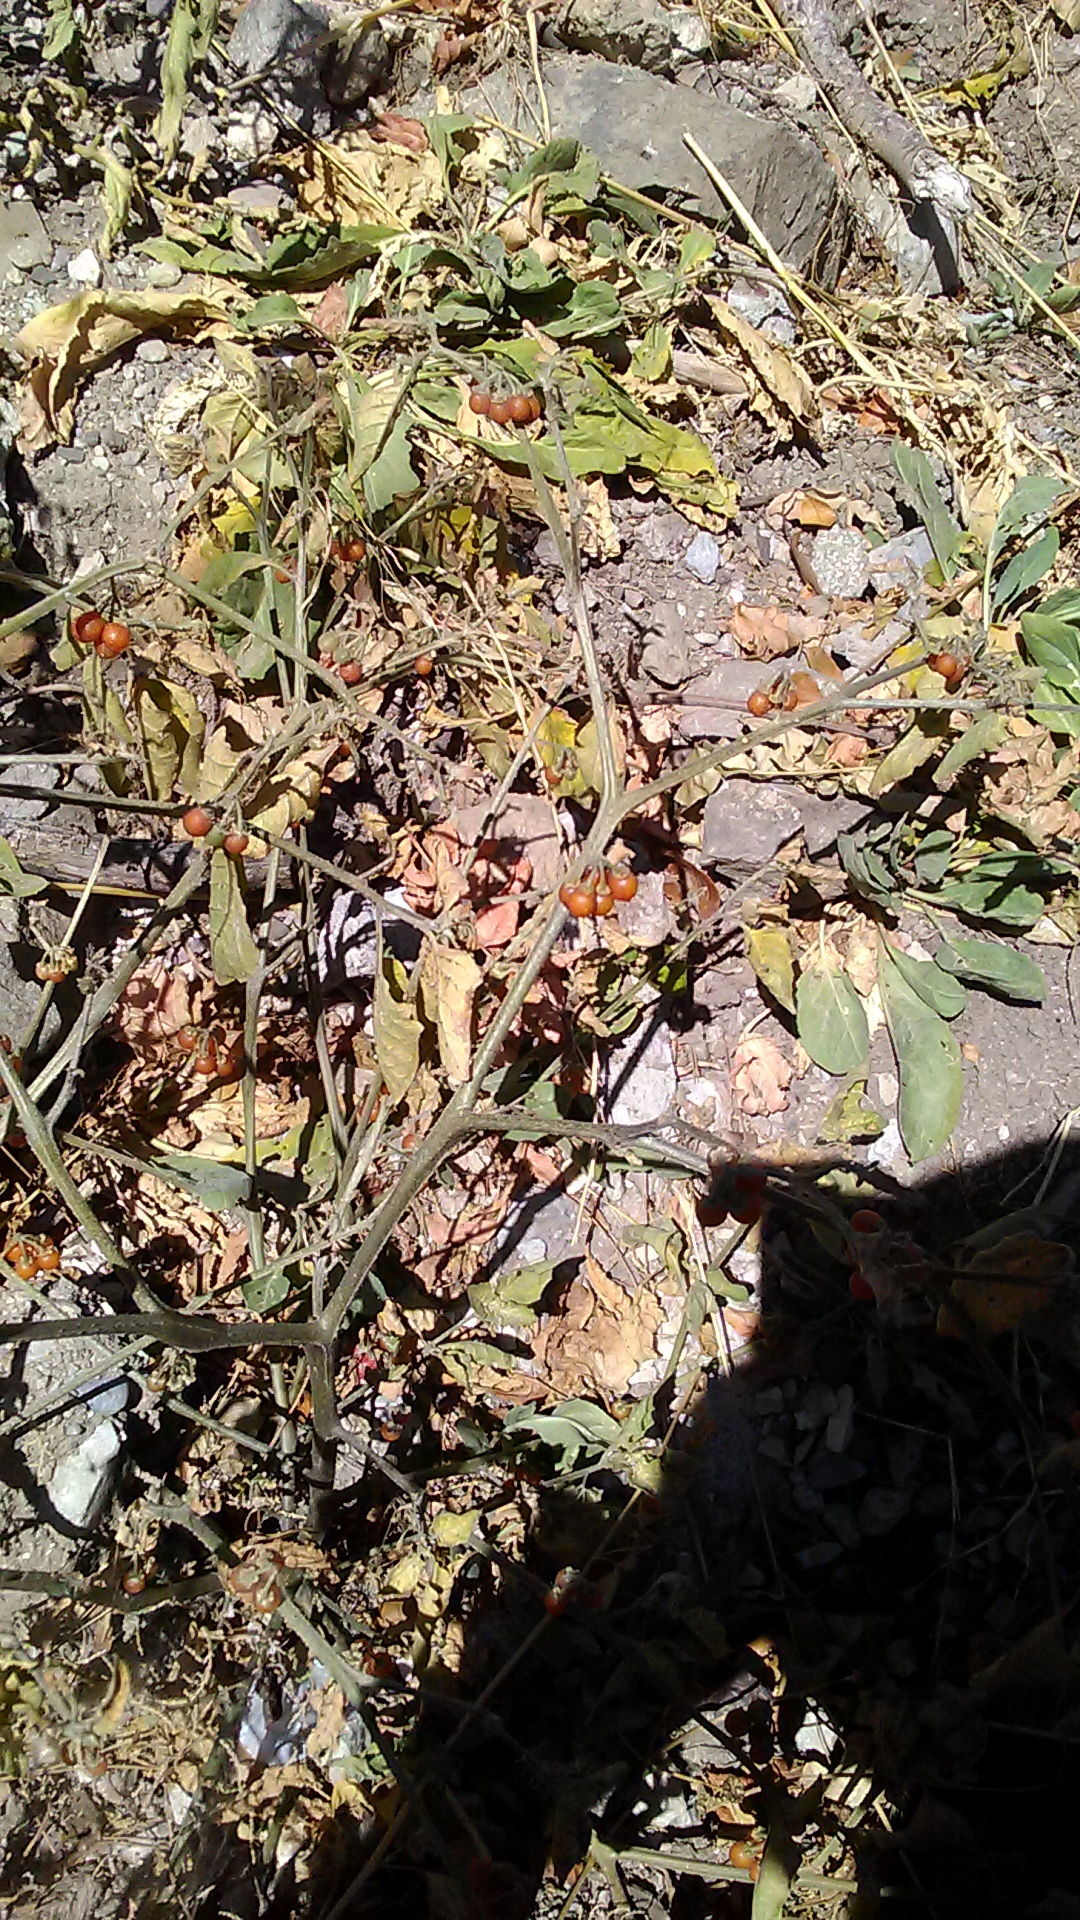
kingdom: Plantae
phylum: Tracheophyta
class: Magnoliopsida
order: Solanales
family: Solanaceae
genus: Solanum
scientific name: Solanum villosum
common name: Red nightshade
